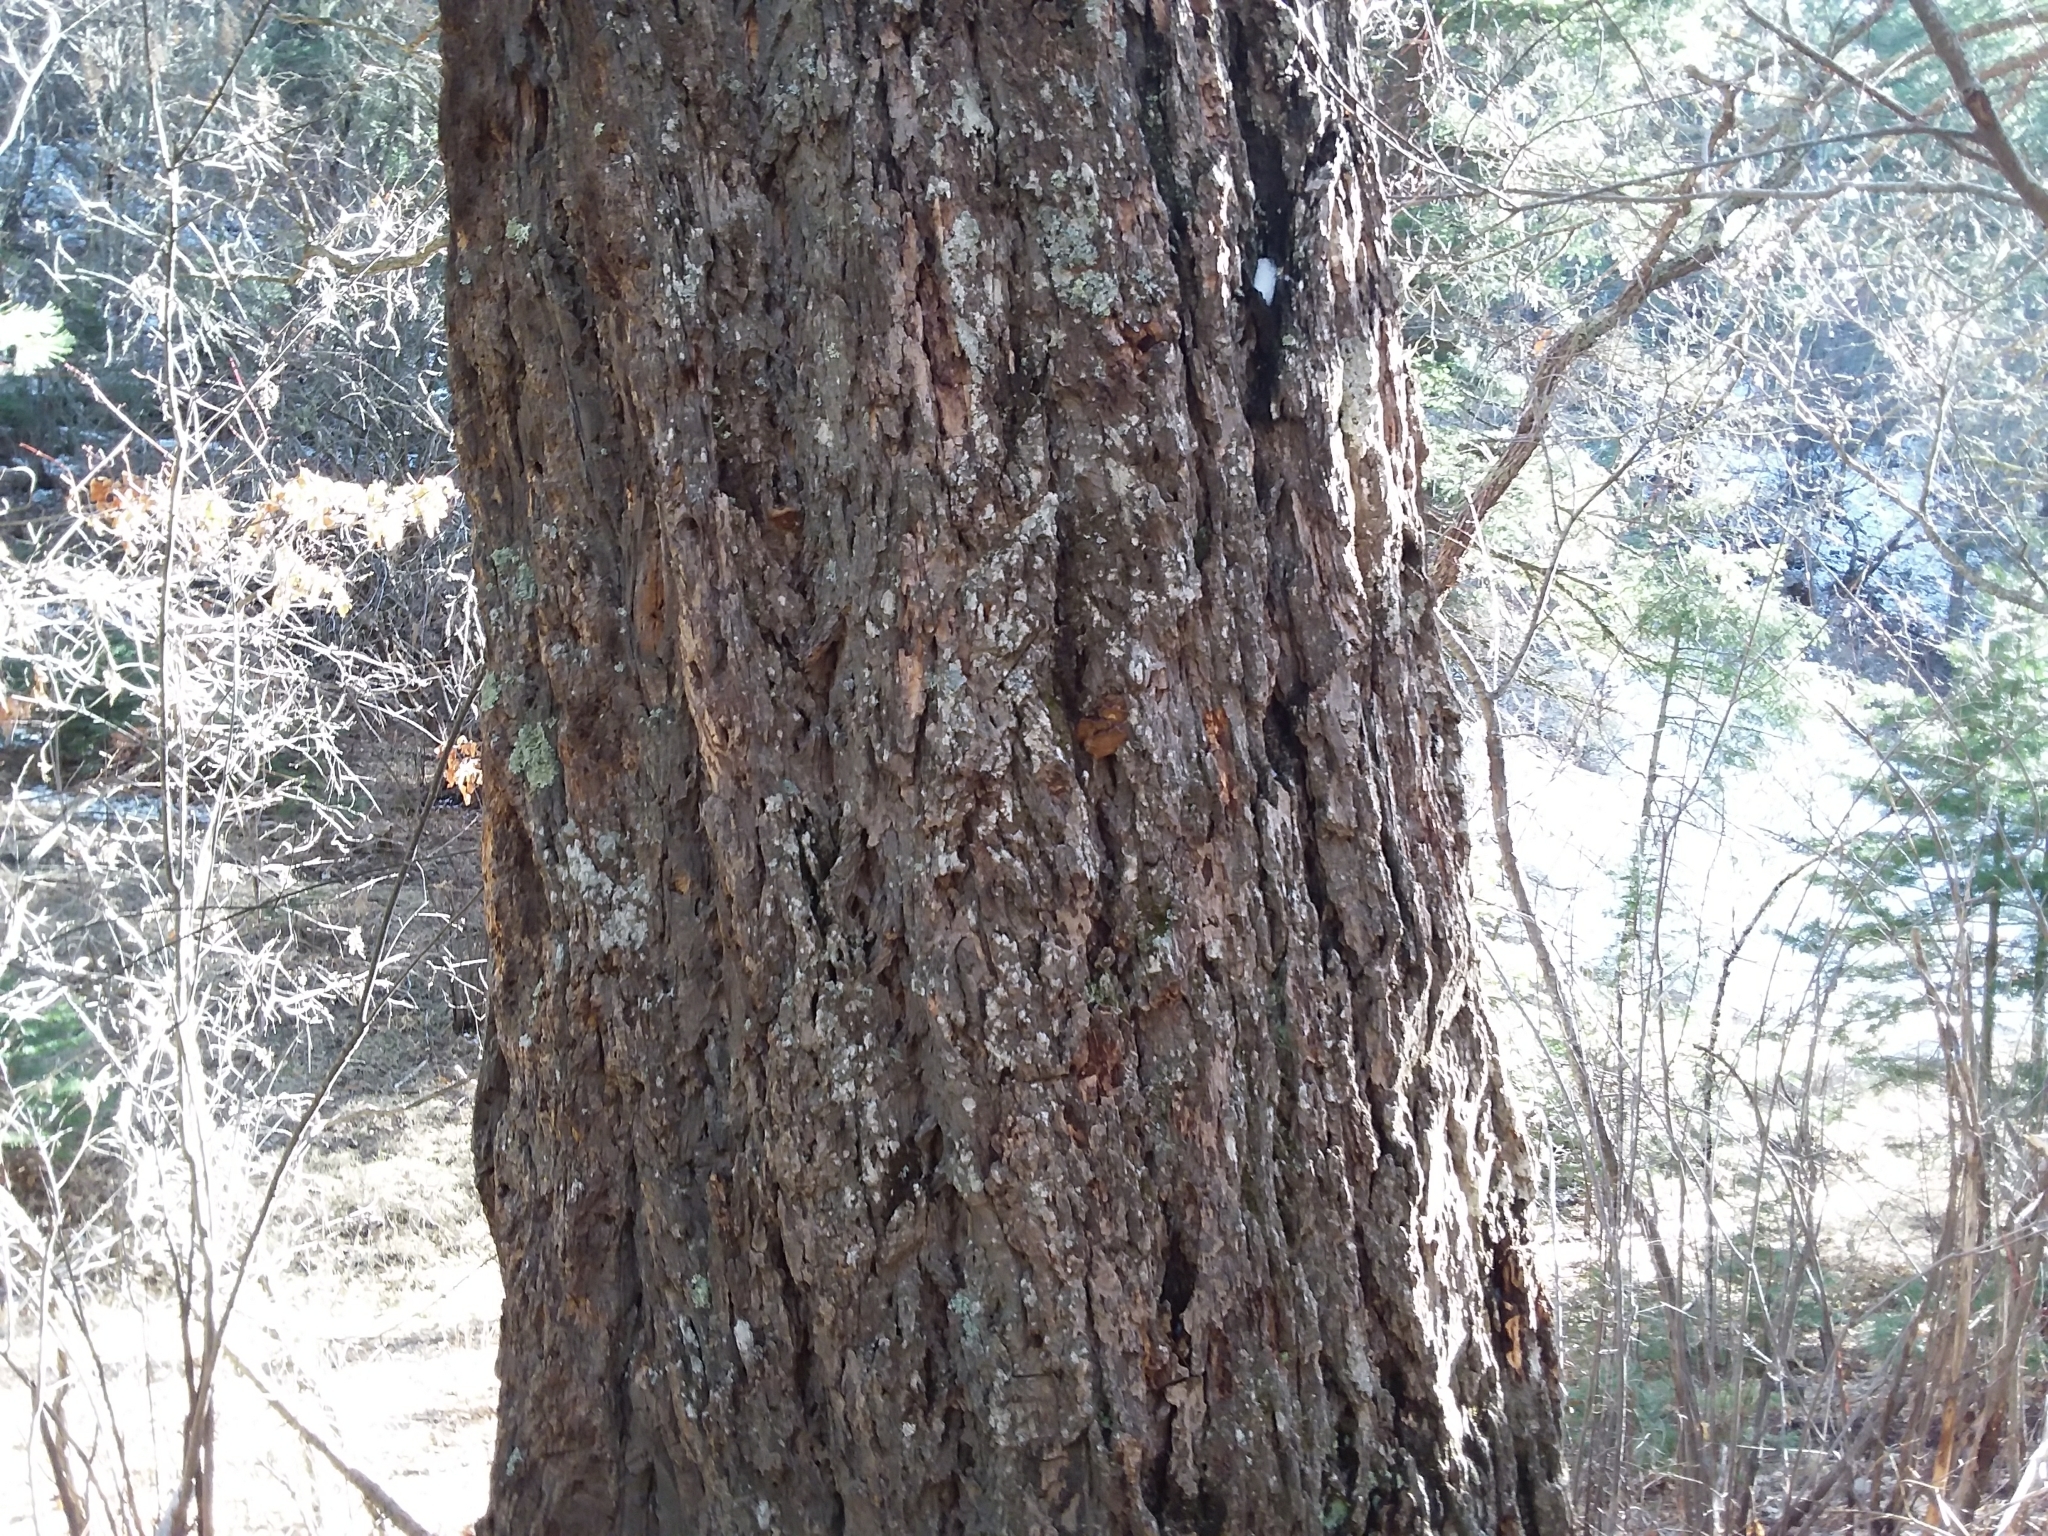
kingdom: Plantae
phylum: Tracheophyta
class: Pinopsida
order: Pinales
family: Pinaceae
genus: Pseudotsuga
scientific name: Pseudotsuga menziesii
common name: Douglas fir
